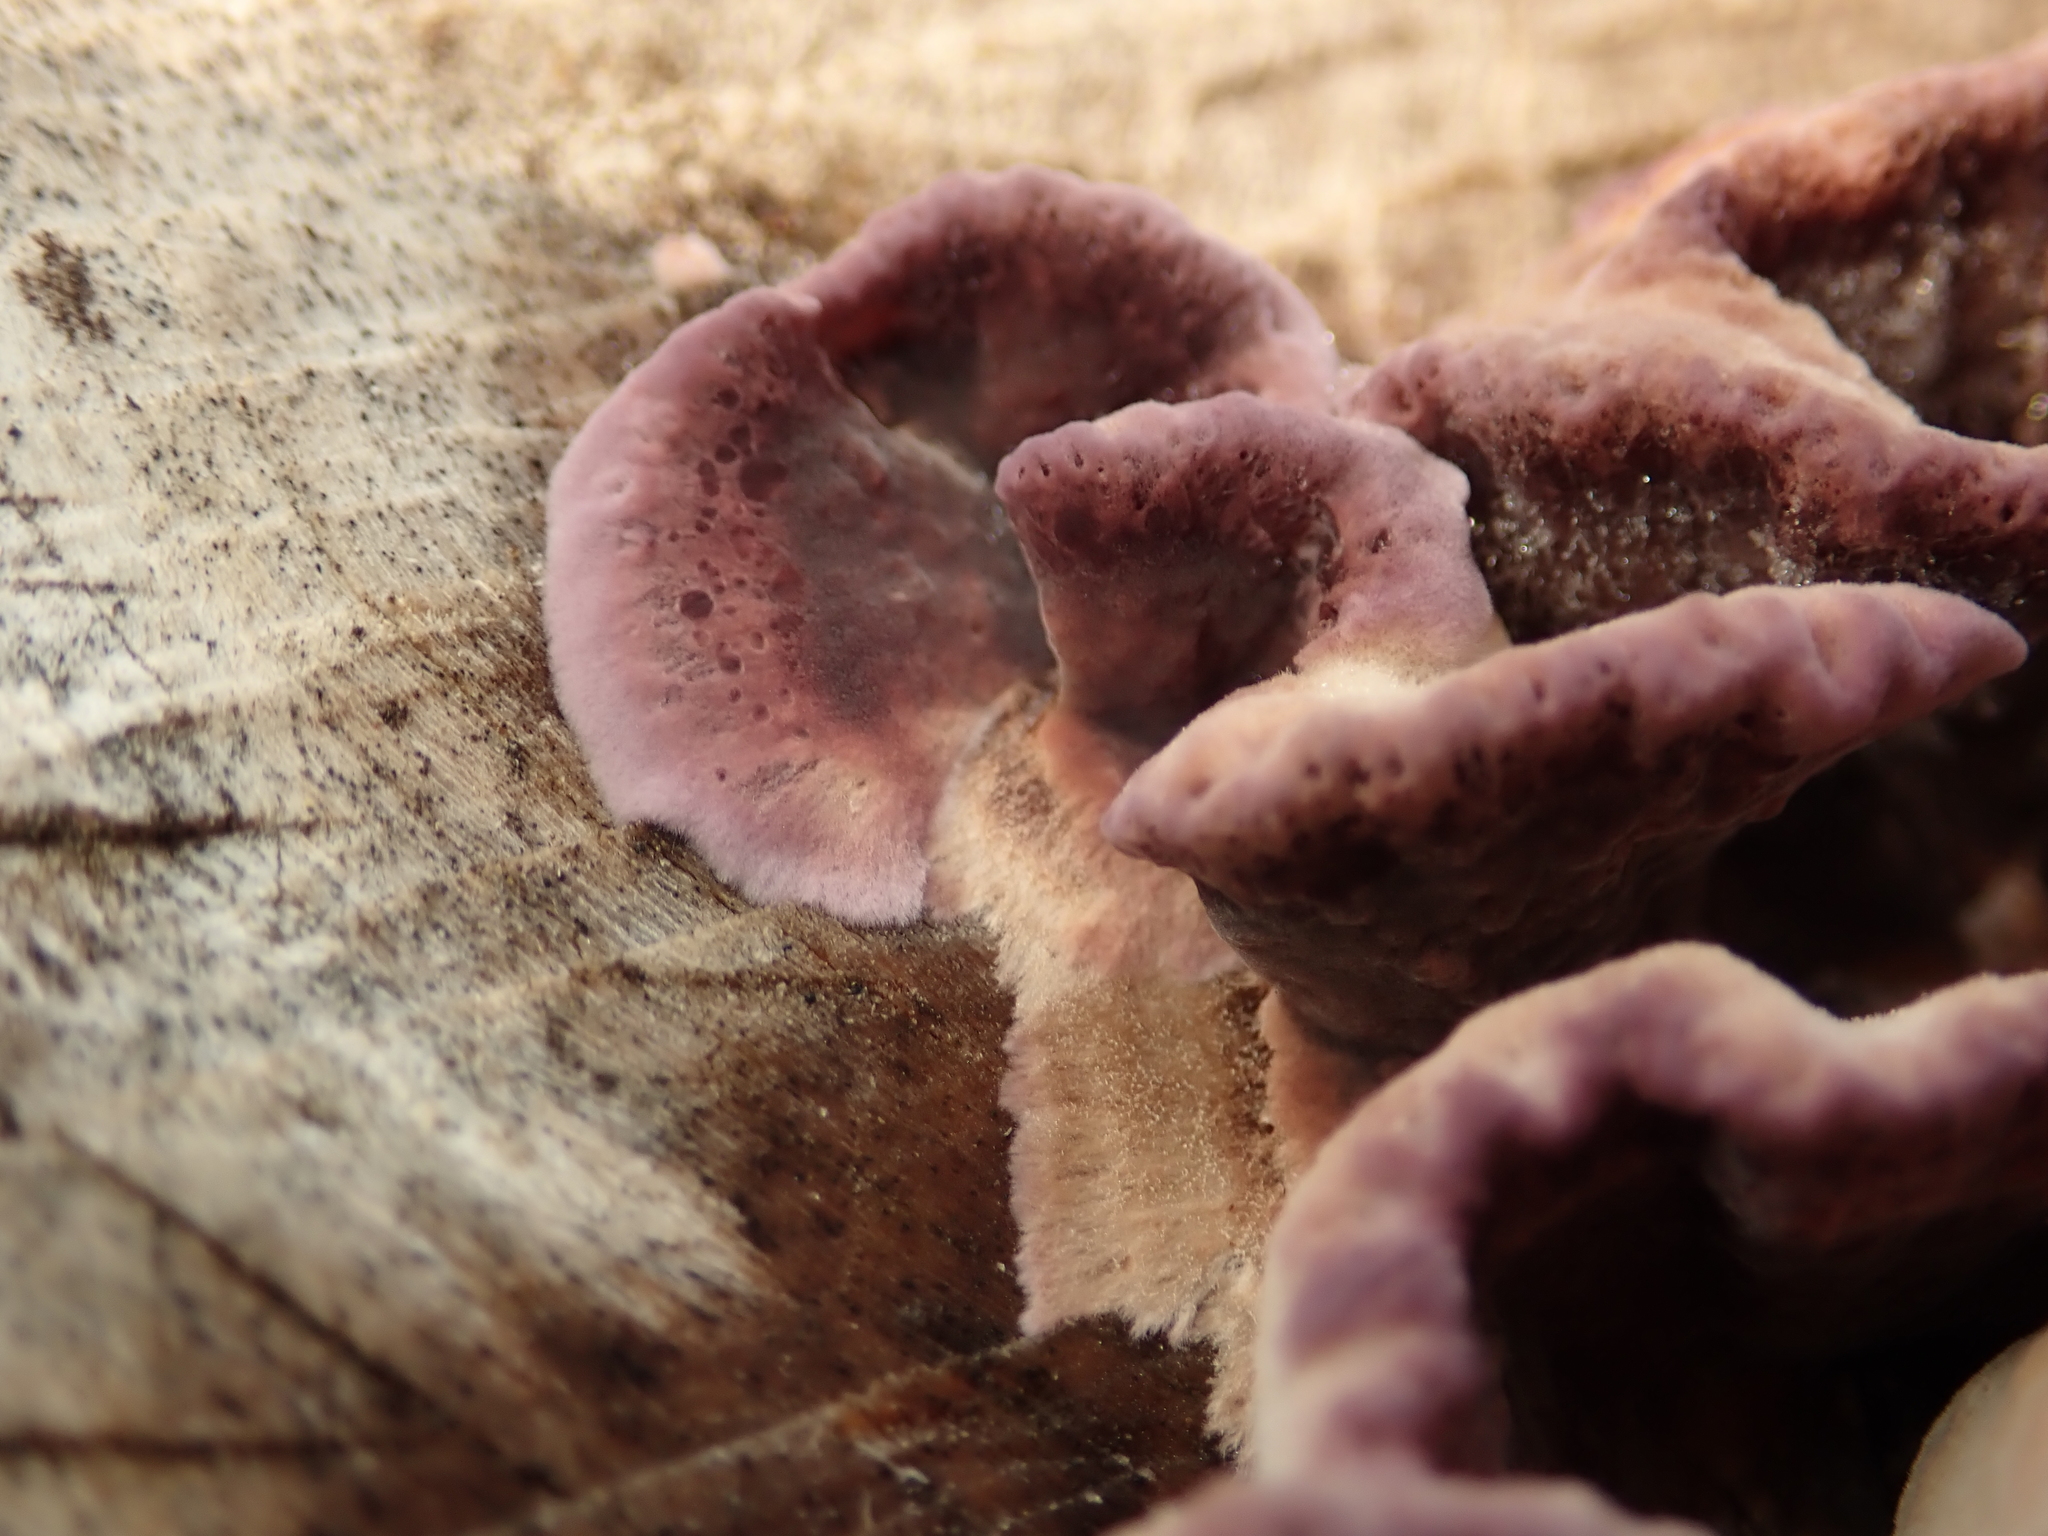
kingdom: Fungi
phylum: Basidiomycota
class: Agaricomycetes
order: Agaricales
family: Cyphellaceae
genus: Chondrostereum
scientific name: Chondrostereum purpureum
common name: Silver leaf disease
